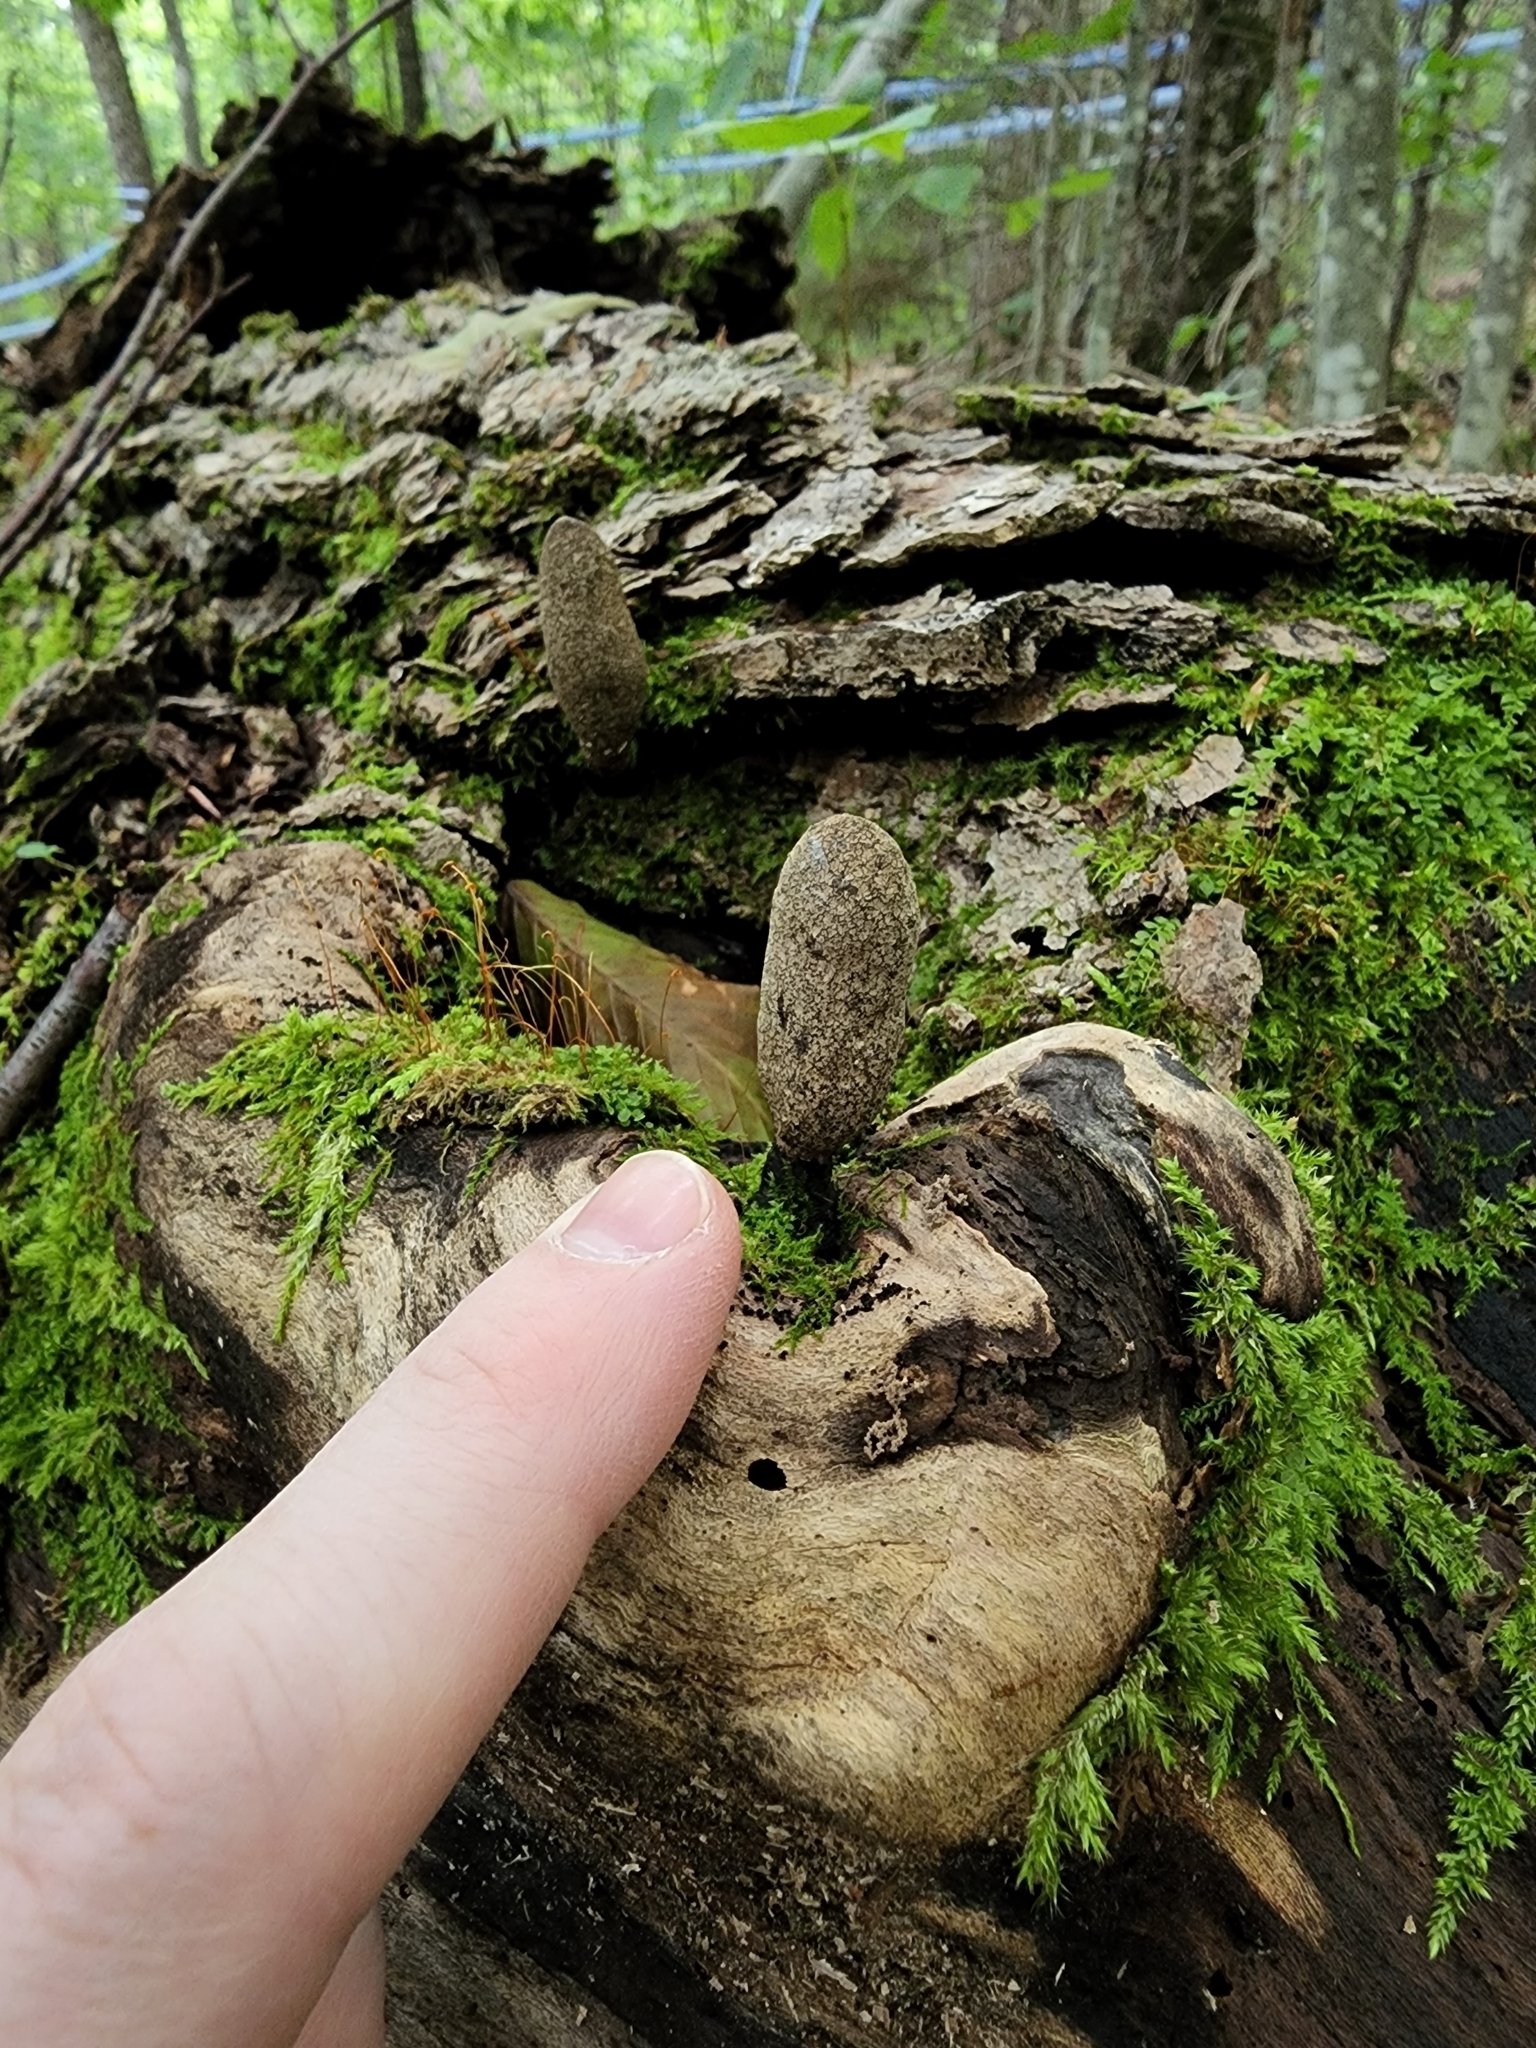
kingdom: Fungi
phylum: Ascomycota
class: Sordariomycetes
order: Xylariales
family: Xylariaceae
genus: Xylaria
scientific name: Xylaria longipes
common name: Dead moll's fingers
